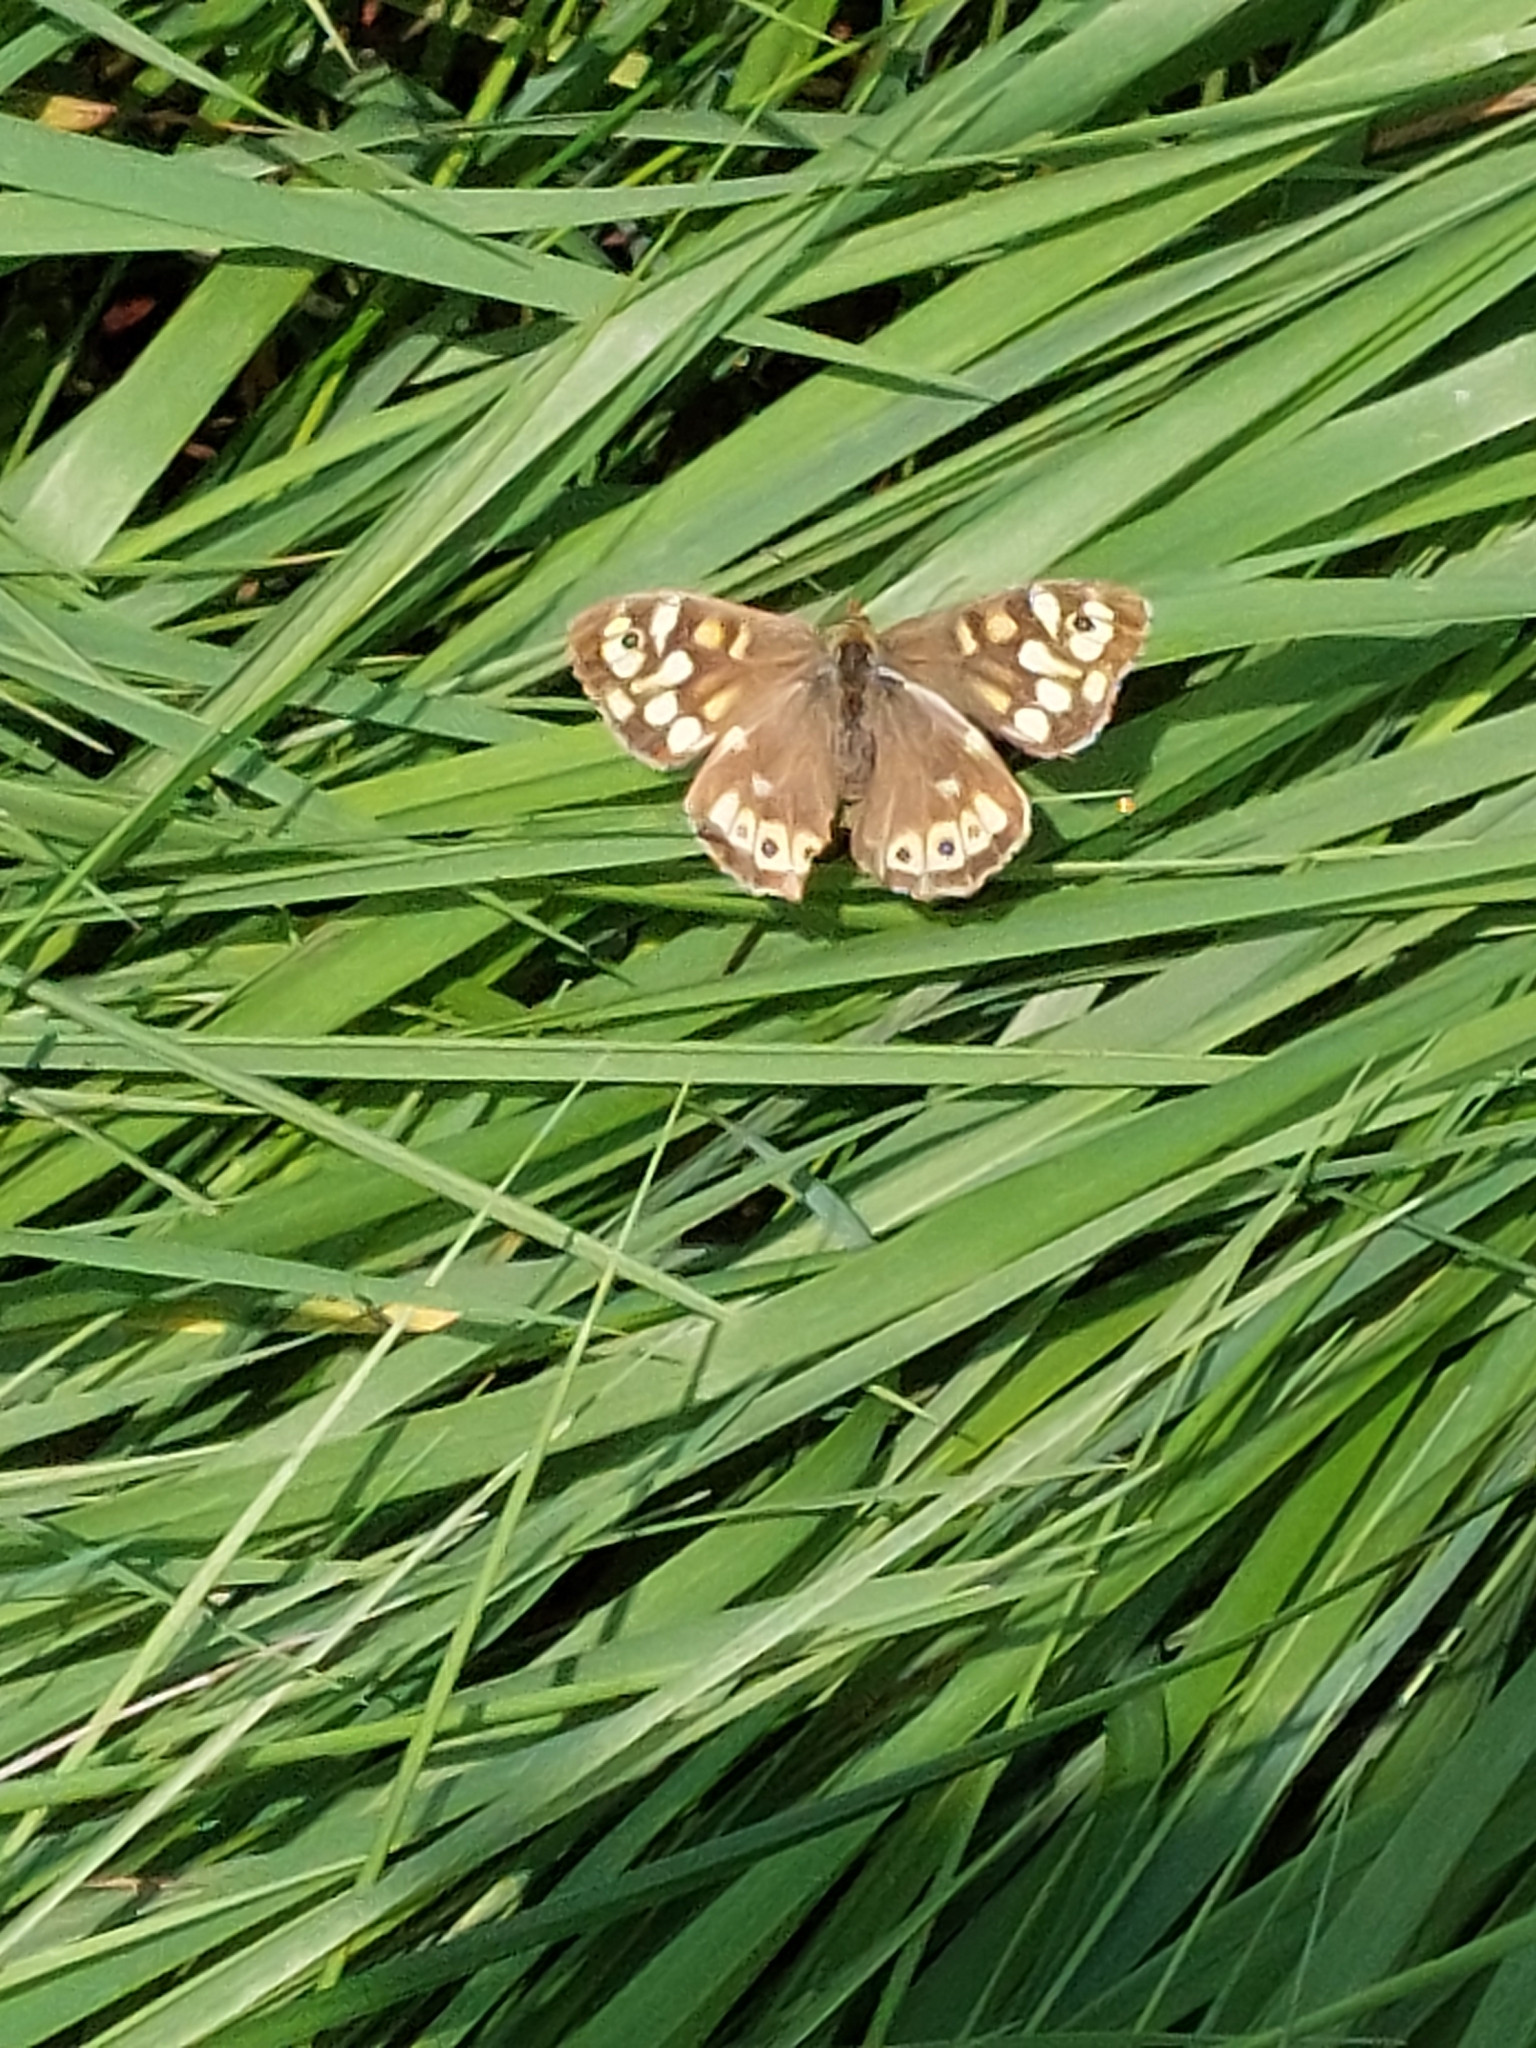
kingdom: Animalia
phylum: Arthropoda
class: Insecta
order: Lepidoptera
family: Nymphalidae
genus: Pararge
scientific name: Pararge aegeria
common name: Speckled wood
